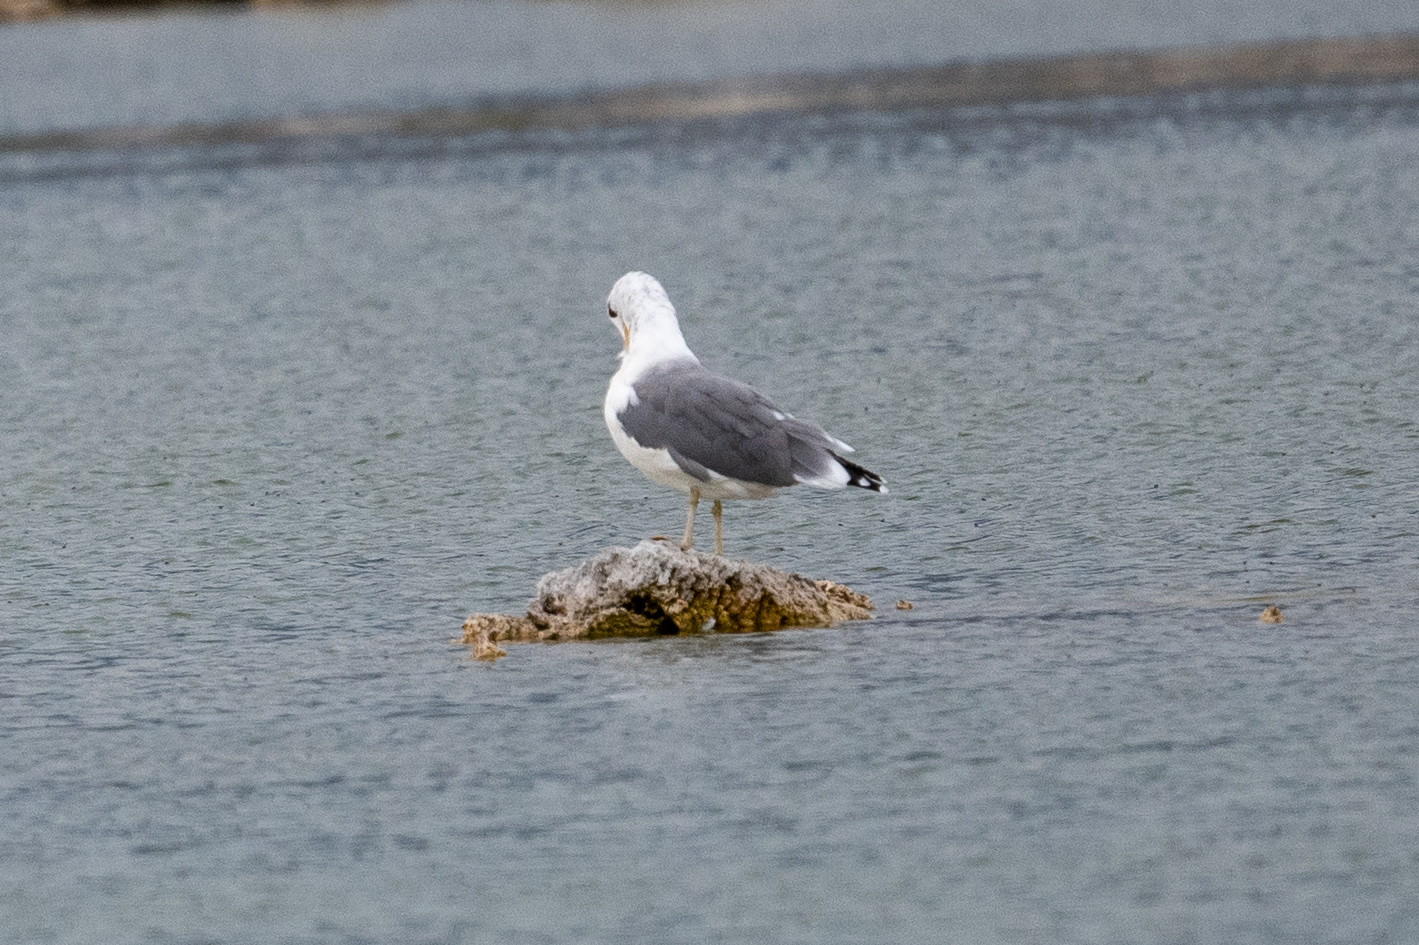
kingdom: Animalia
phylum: Chordata
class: Aves
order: Charadriiformes
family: Laridae
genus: Larus
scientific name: Larus californicus
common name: California gull
